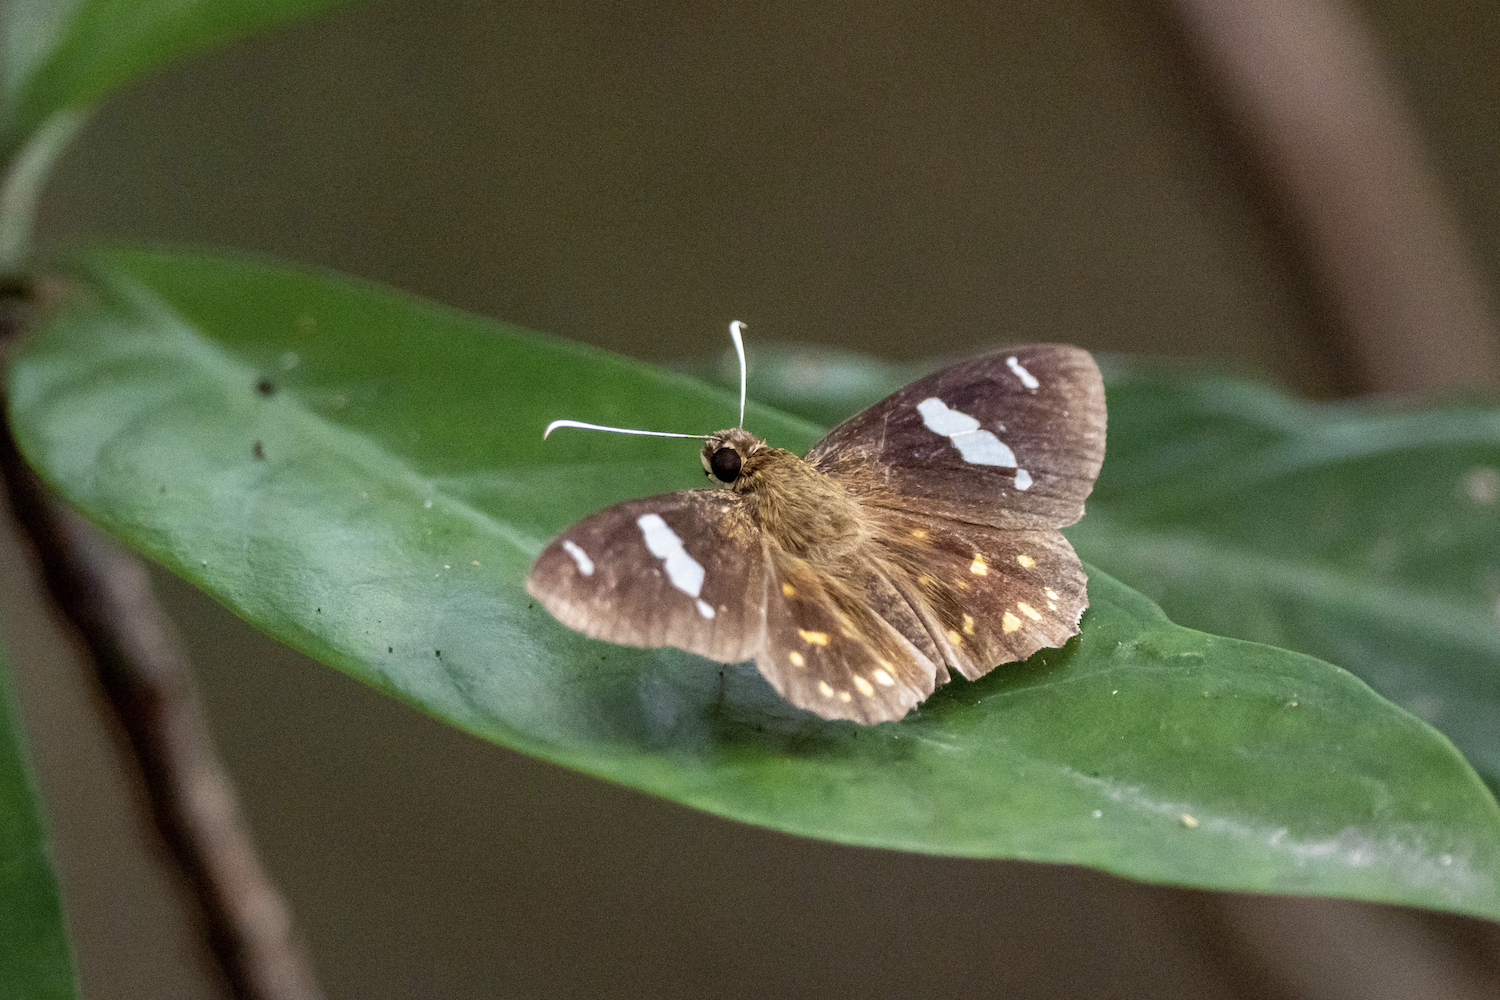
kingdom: Animalia
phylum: Arthropoda
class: Insecta
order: Lepidoptera
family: Hesperiidae
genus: Celaenorrhinus
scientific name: Celaenorrhinus leucocera
